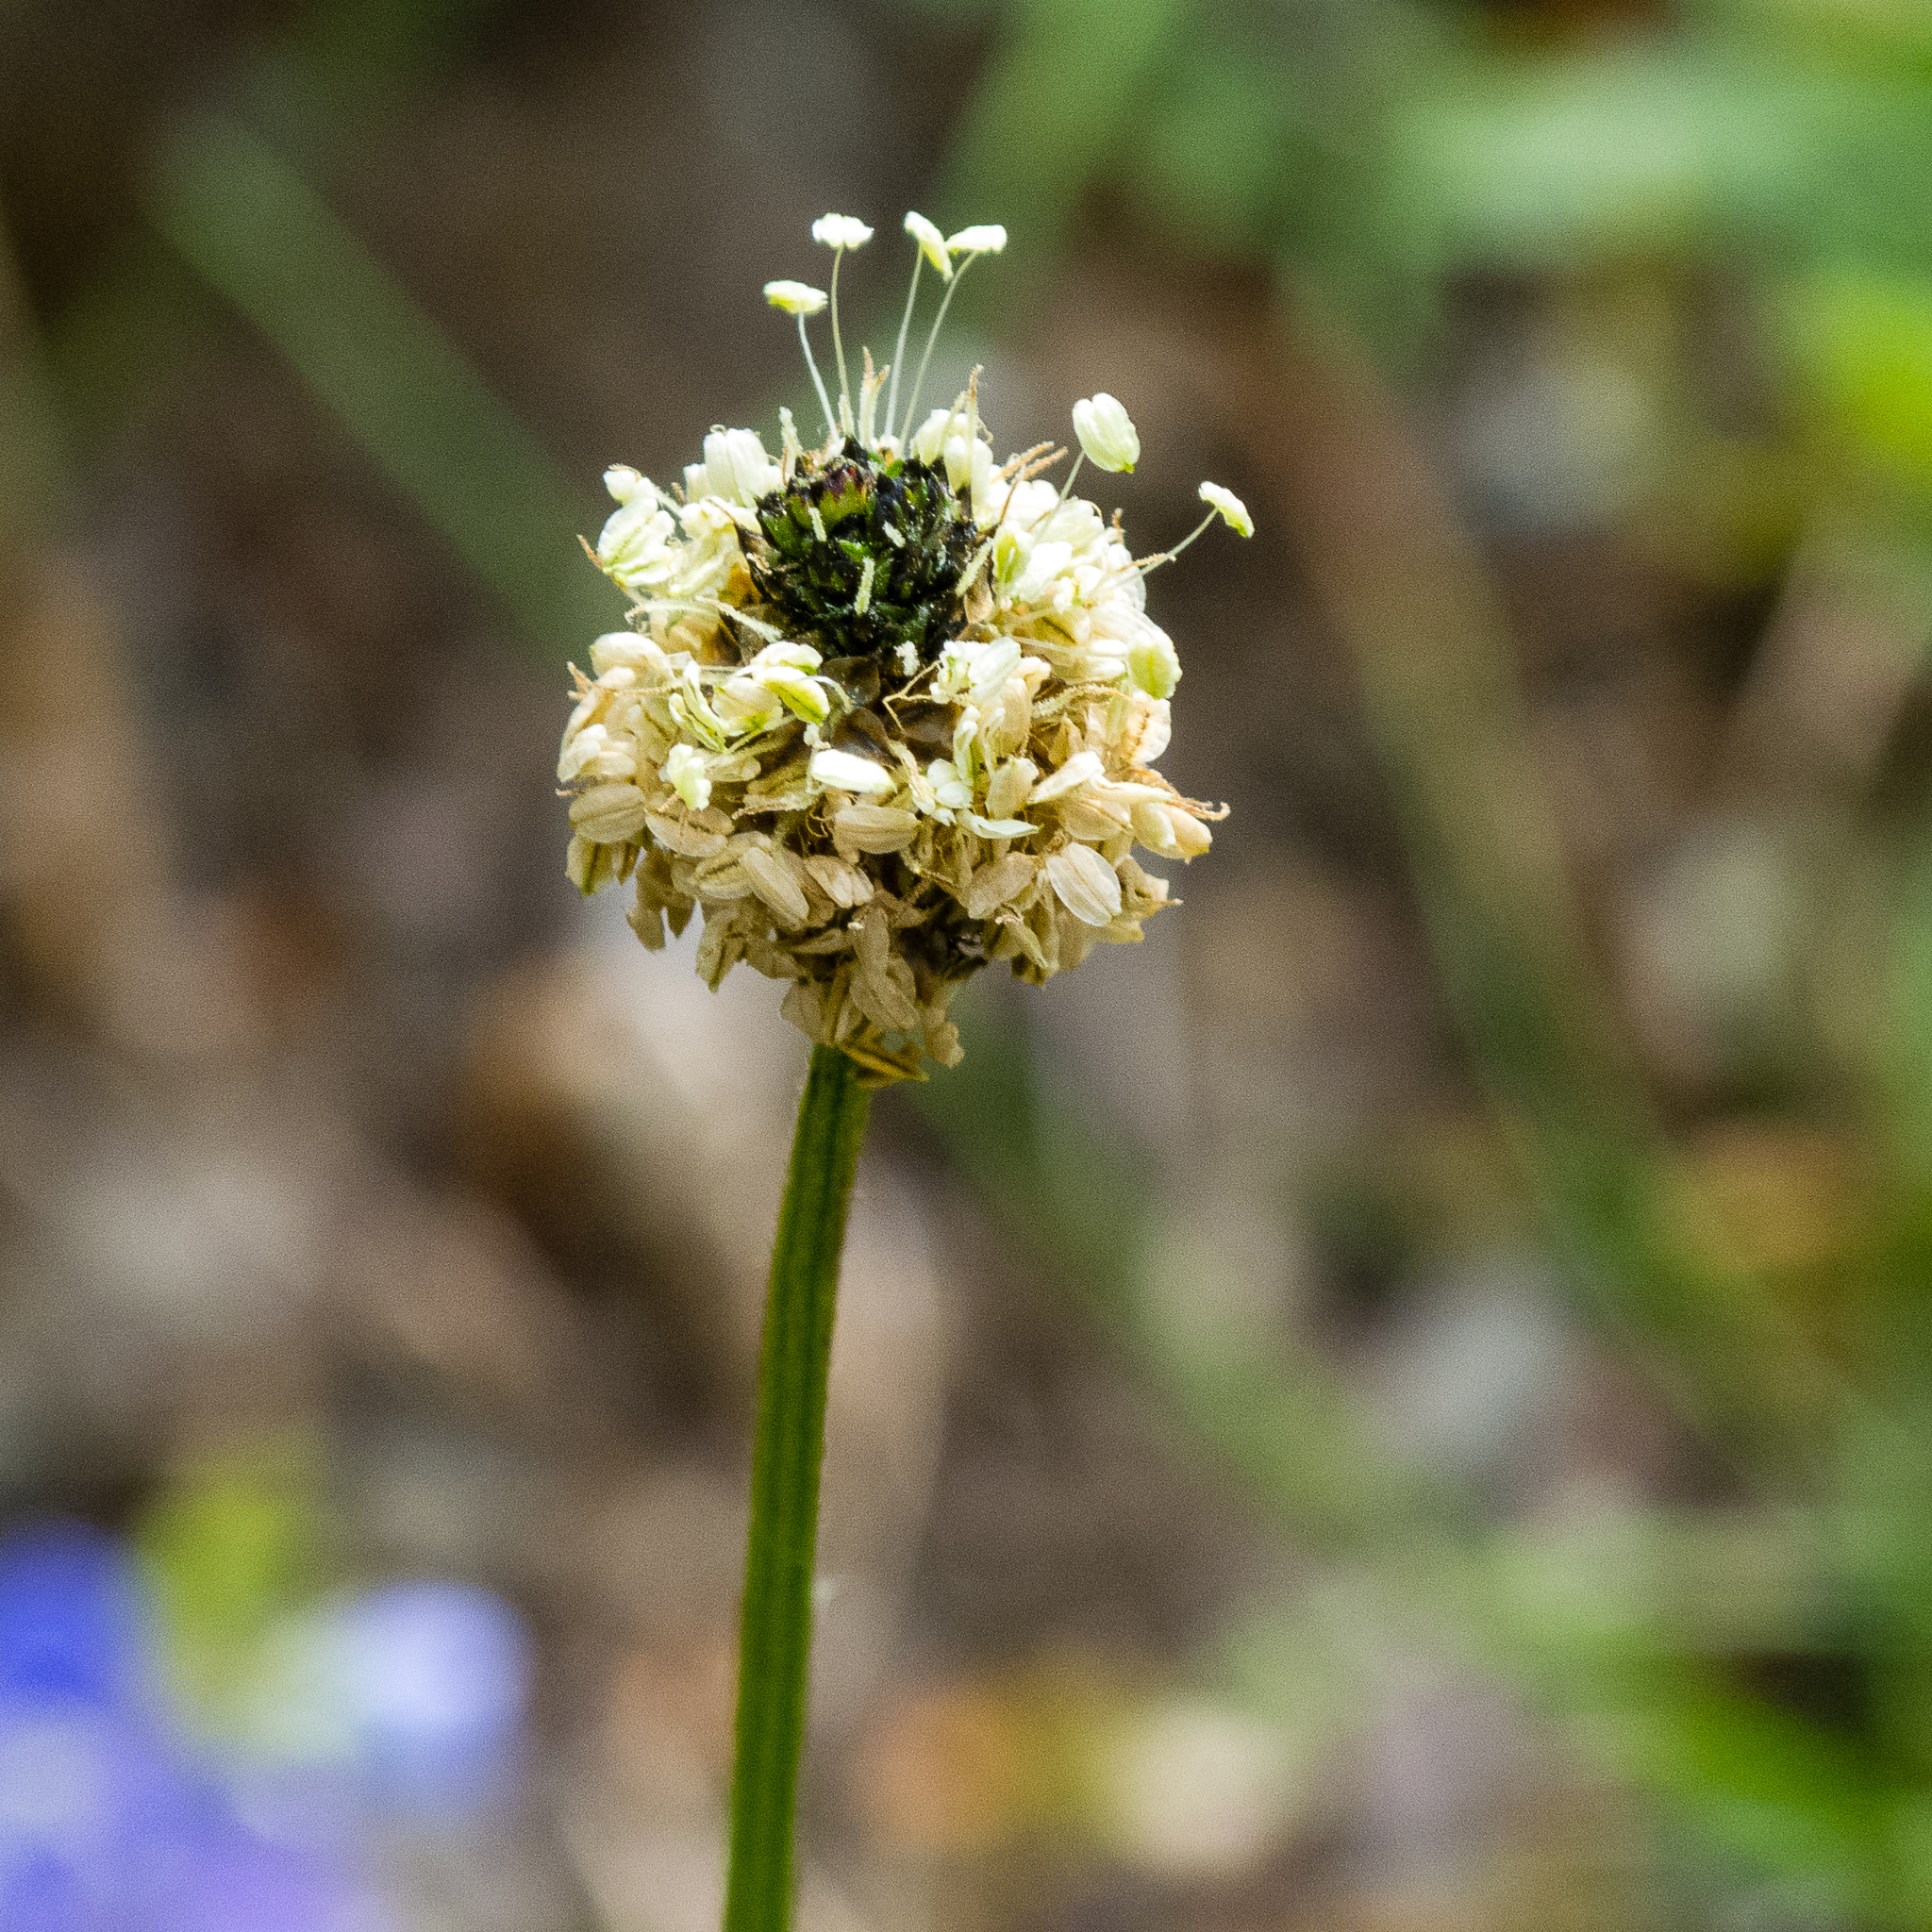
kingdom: Plantae
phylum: Tracheophyta
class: Magnoliopsida
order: Lamiales
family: Plantaginaceae
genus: Plantago
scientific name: Plantago lanceolata
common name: Ribwort plantain
